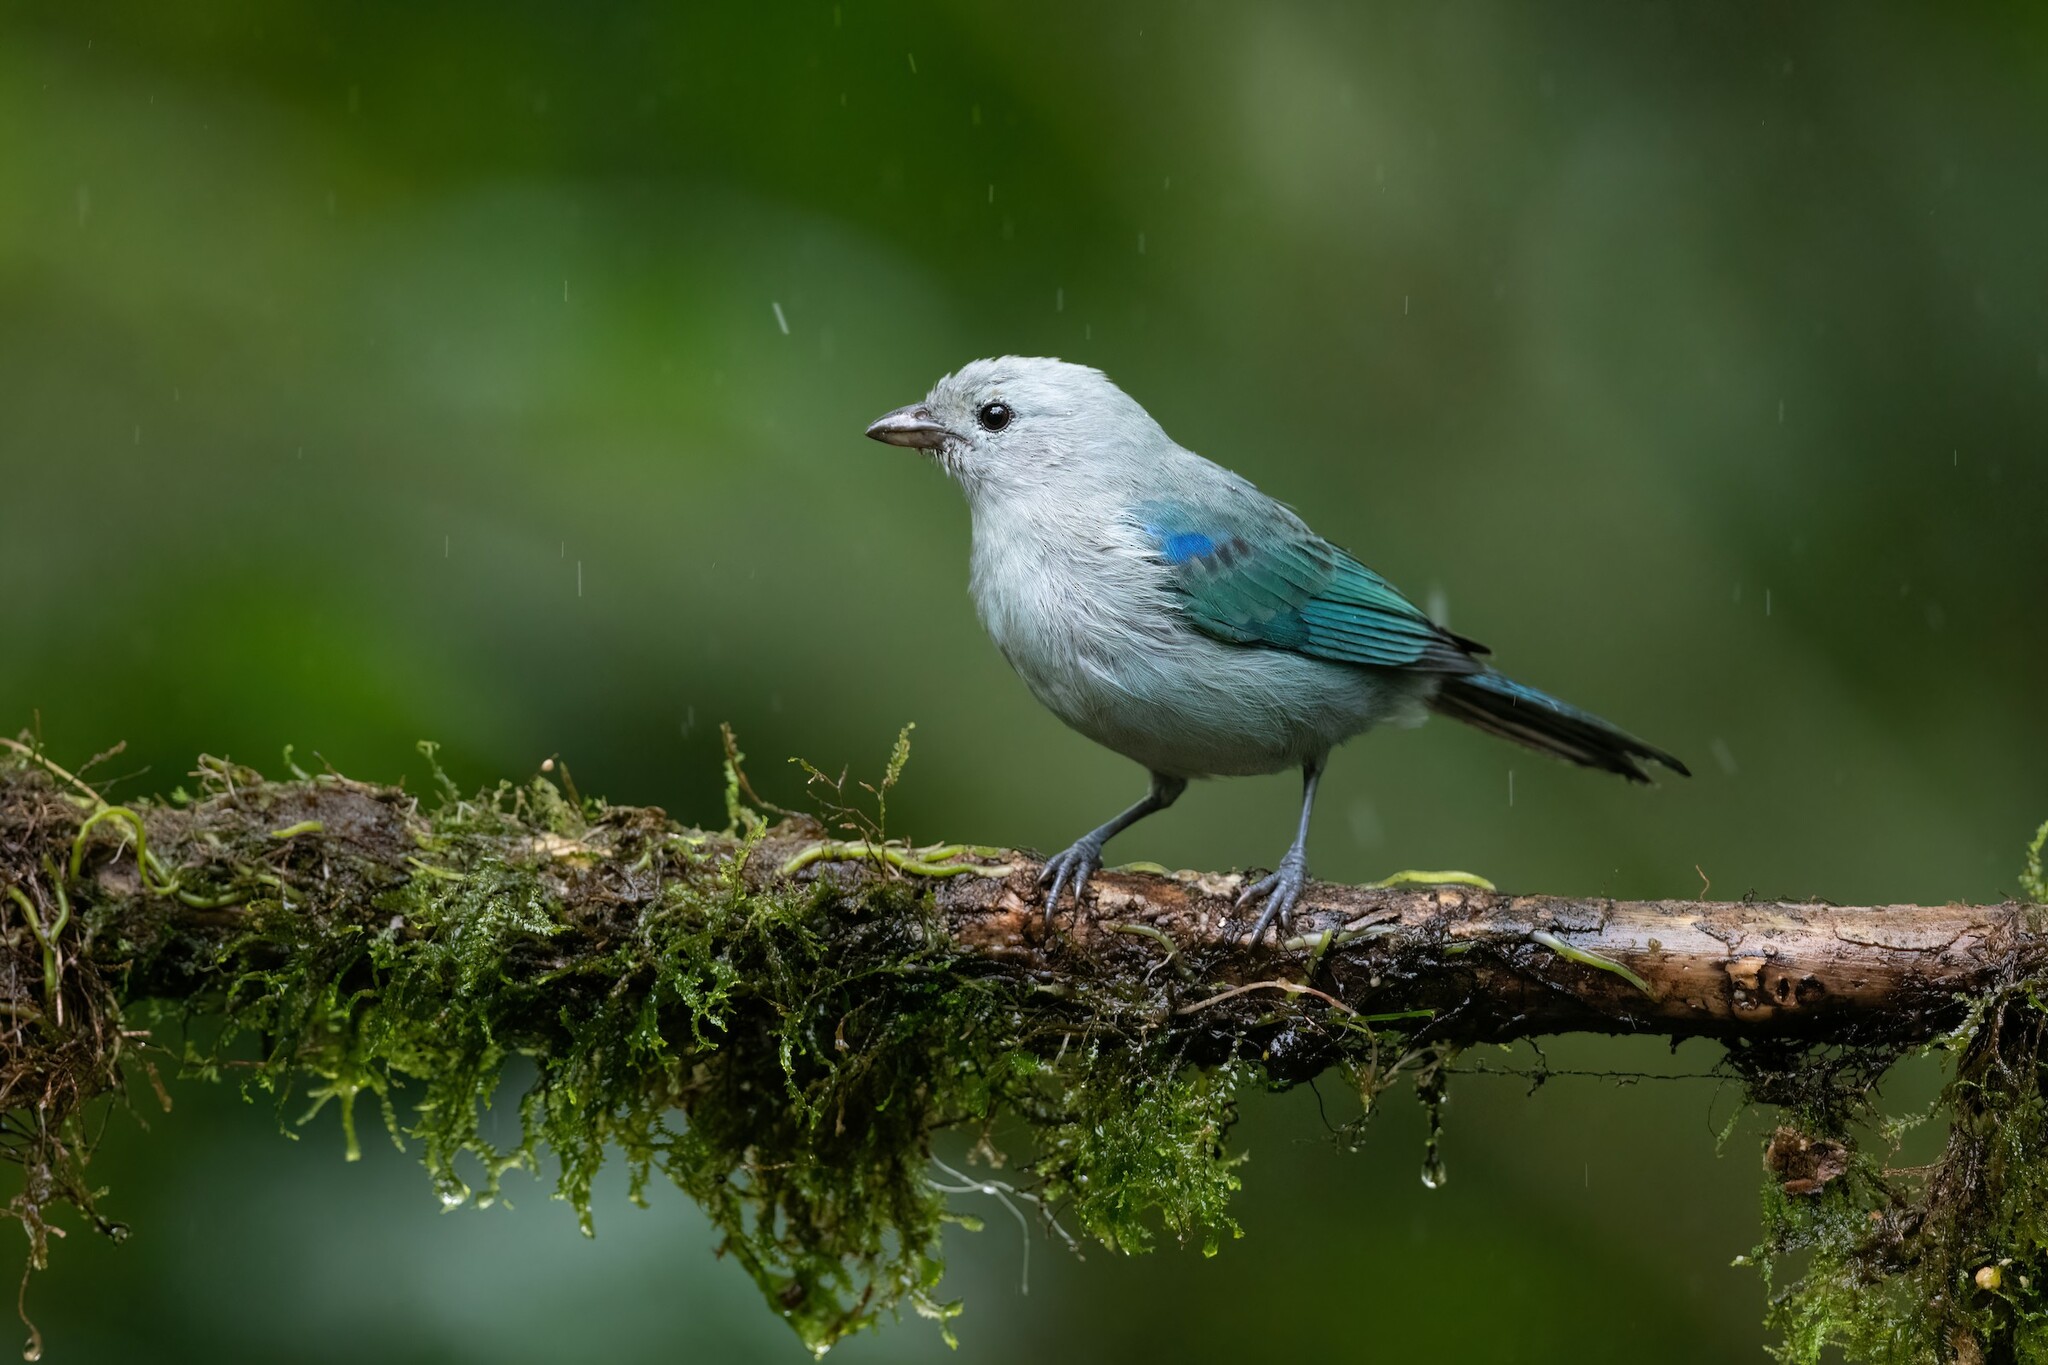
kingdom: Animalia
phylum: Chordata
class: Aves
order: Passeriformes
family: Thraupidae
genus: Thraupis
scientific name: Thraupis episcopus
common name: Blue-grey tanager
